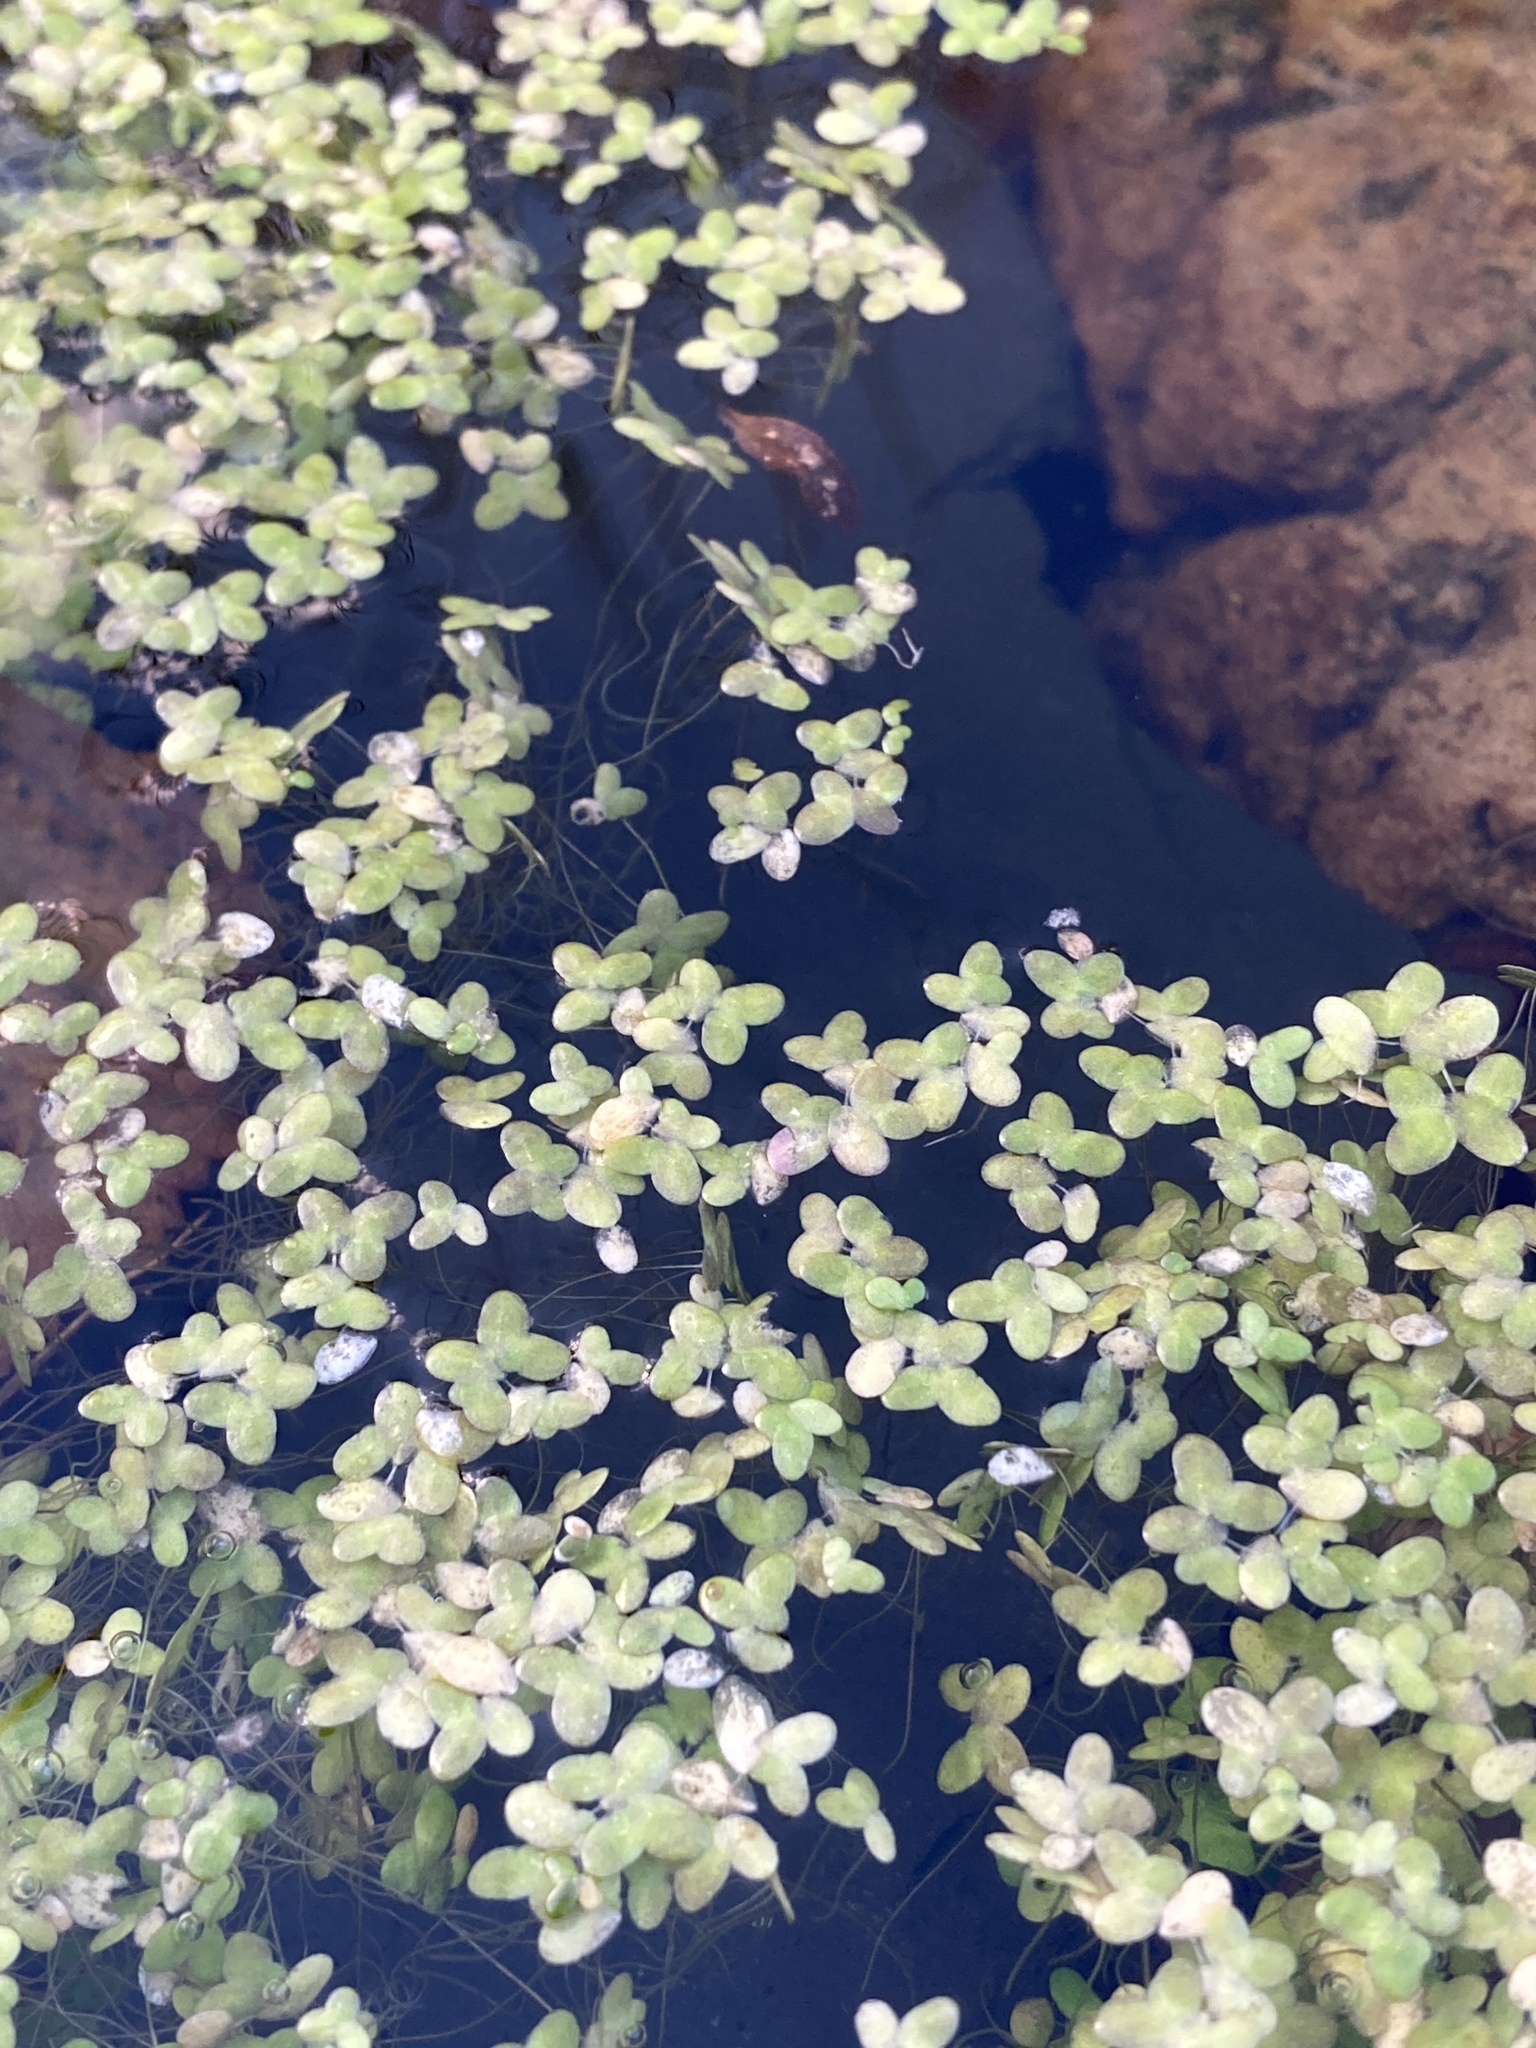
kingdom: Plantae
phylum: Tracheophyta
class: Liliopsida
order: Alismatales
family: Araceae
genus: Lemna
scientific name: Lemna minor
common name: Common duckweed
